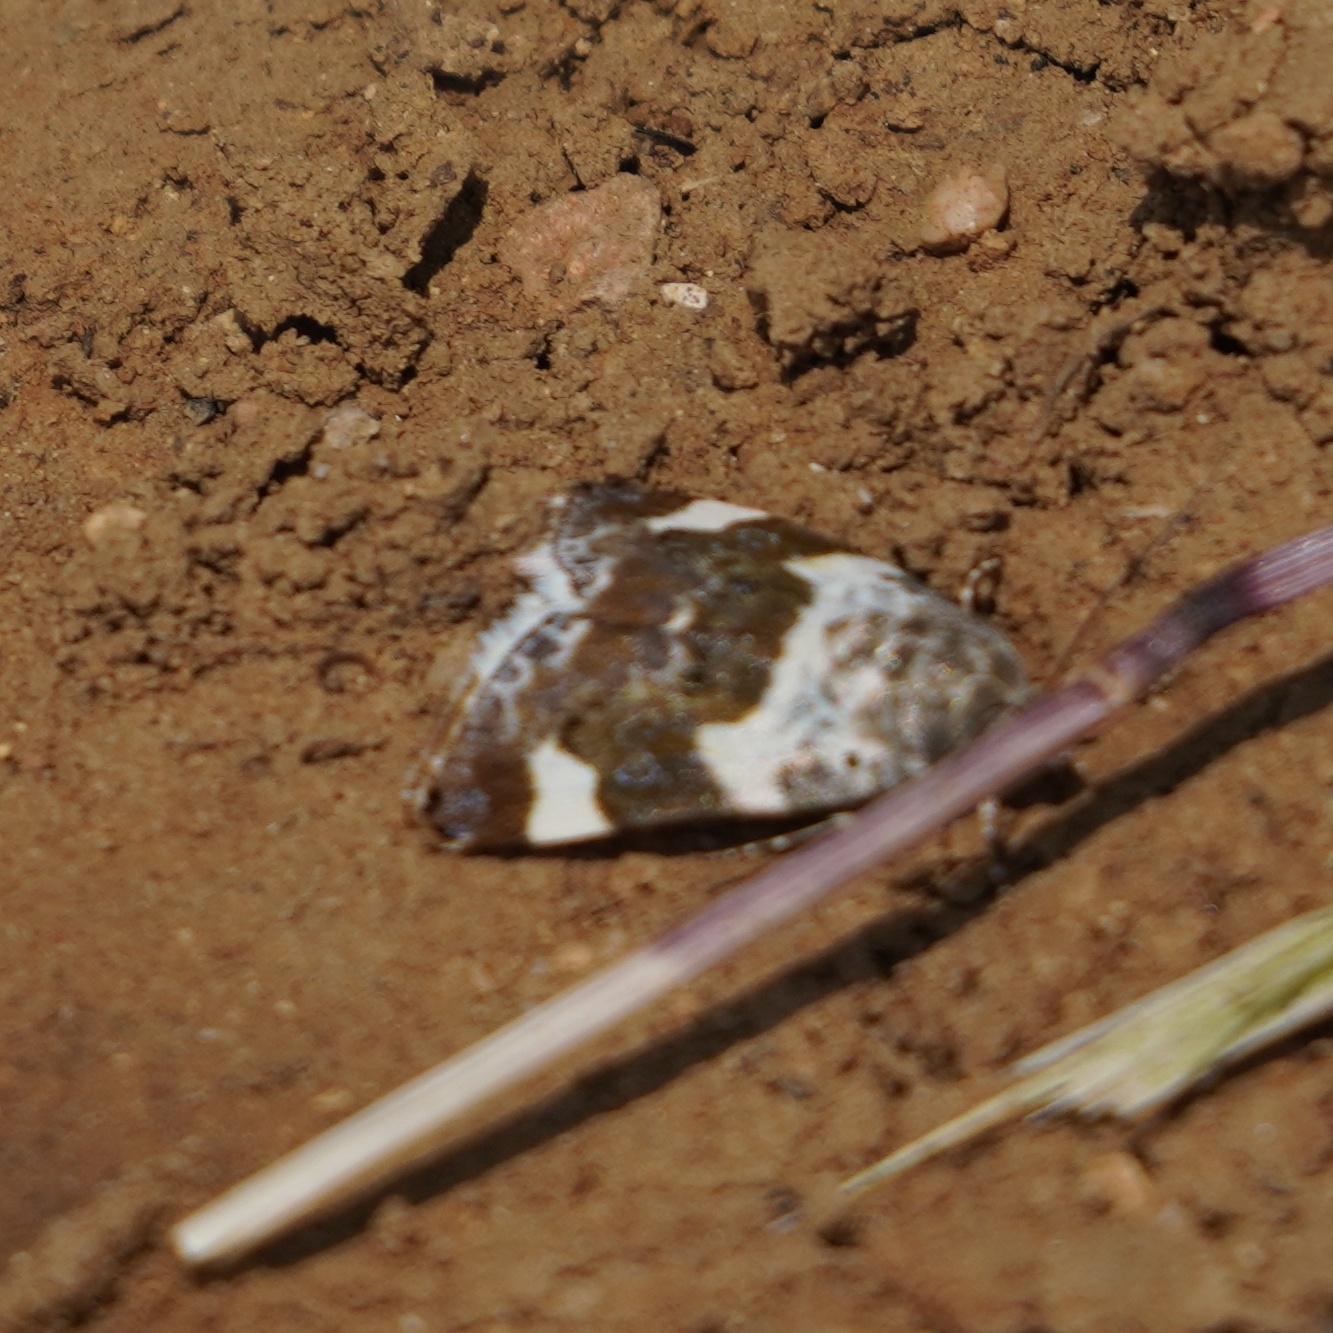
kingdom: Animalia
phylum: Arthropoda
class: Insecta
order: Lepidoptera
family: Noctuidae
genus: Acontia
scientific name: Acontia lucida
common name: Pale shoulder
